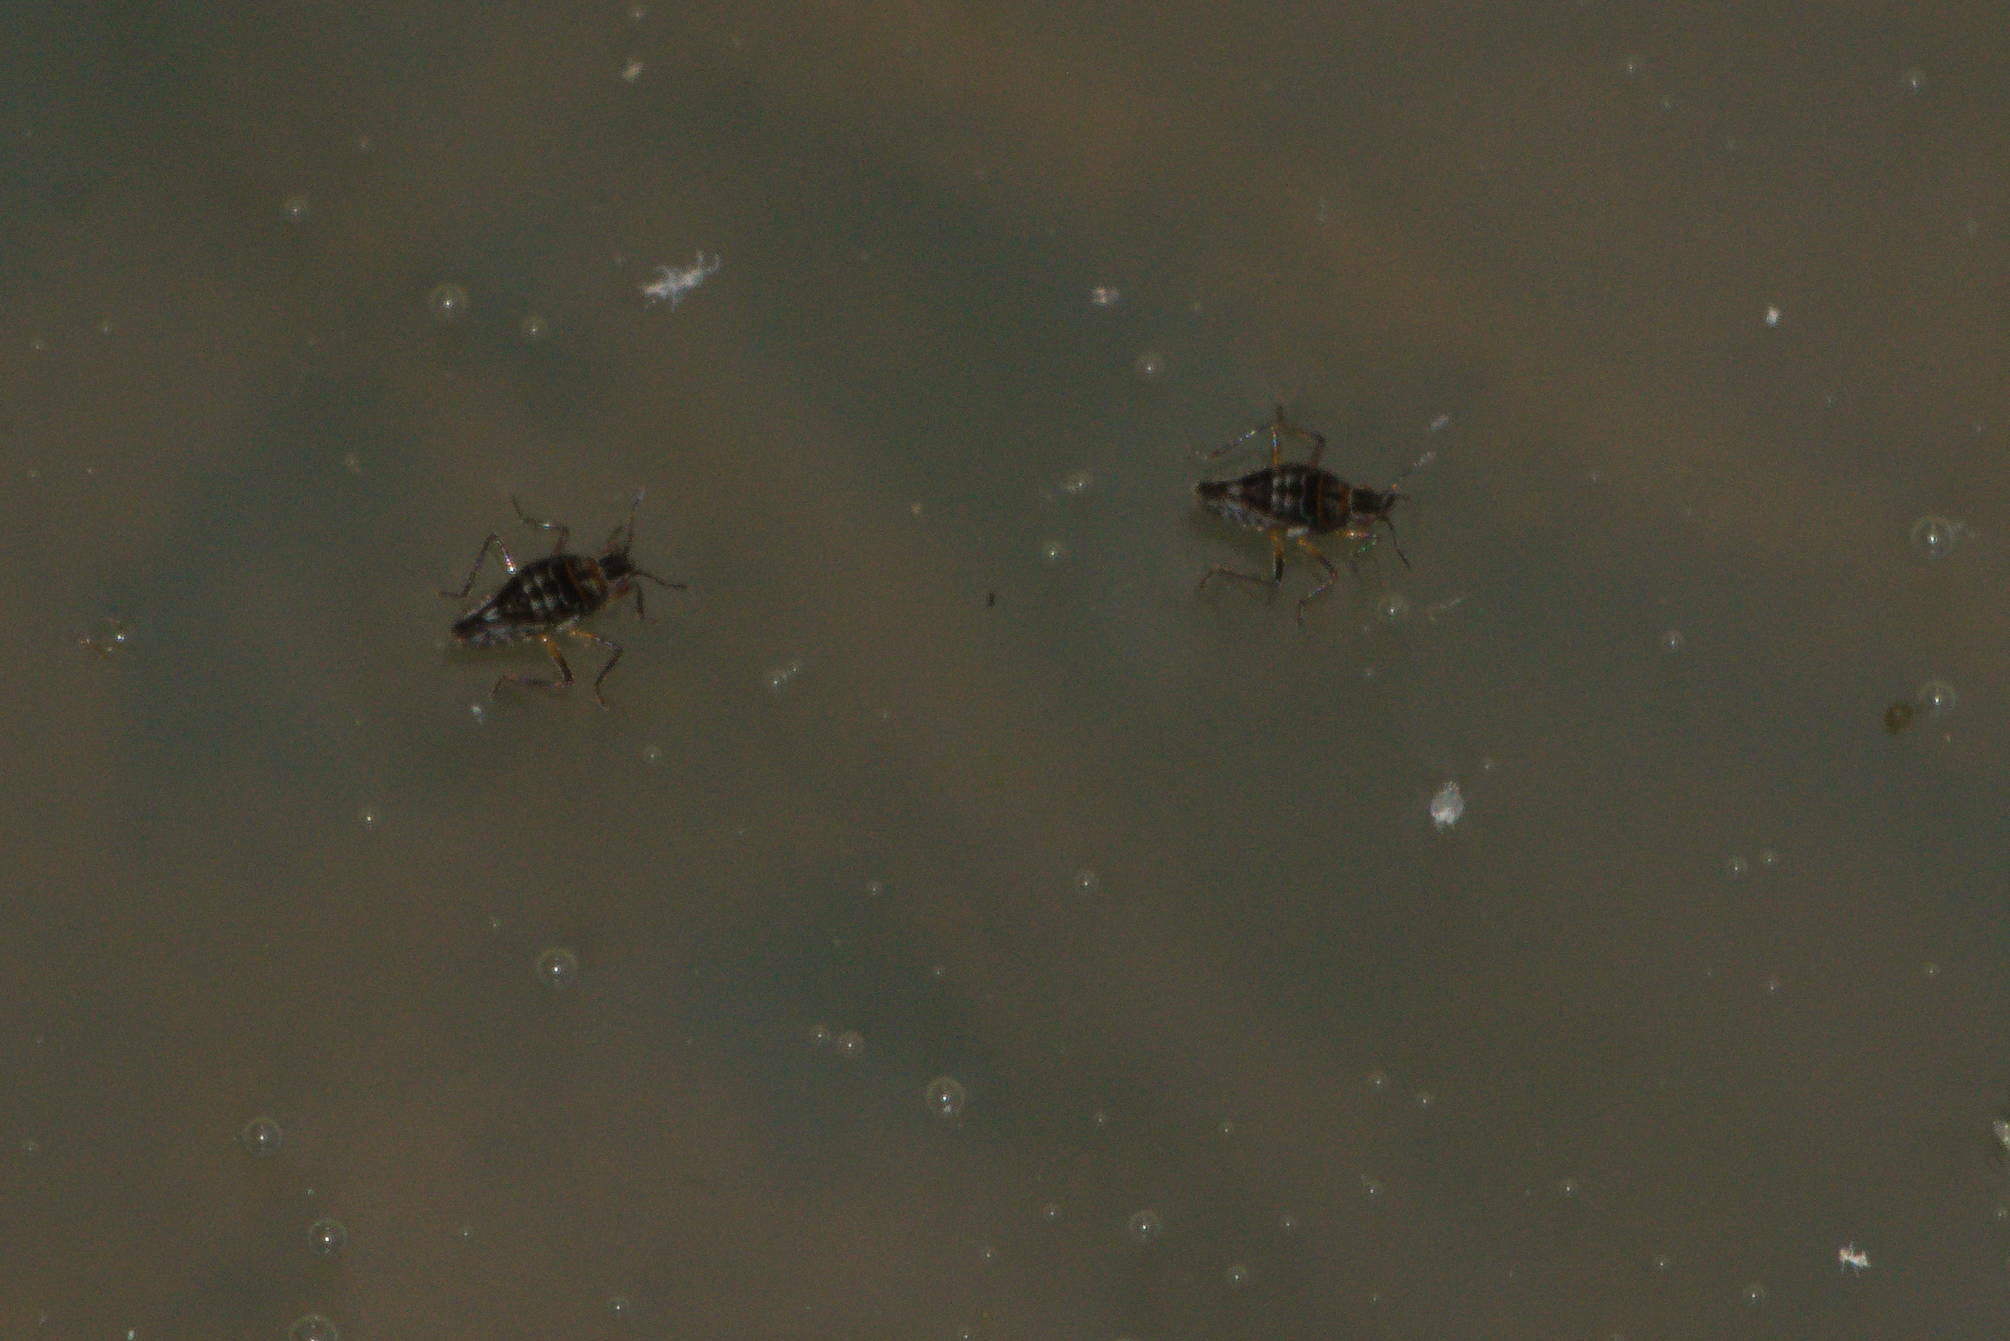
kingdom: Animalia
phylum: Arthropoda
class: Insecta
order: Hemiptera
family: Veliidae
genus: Microvelia
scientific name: Microvelia vagans
